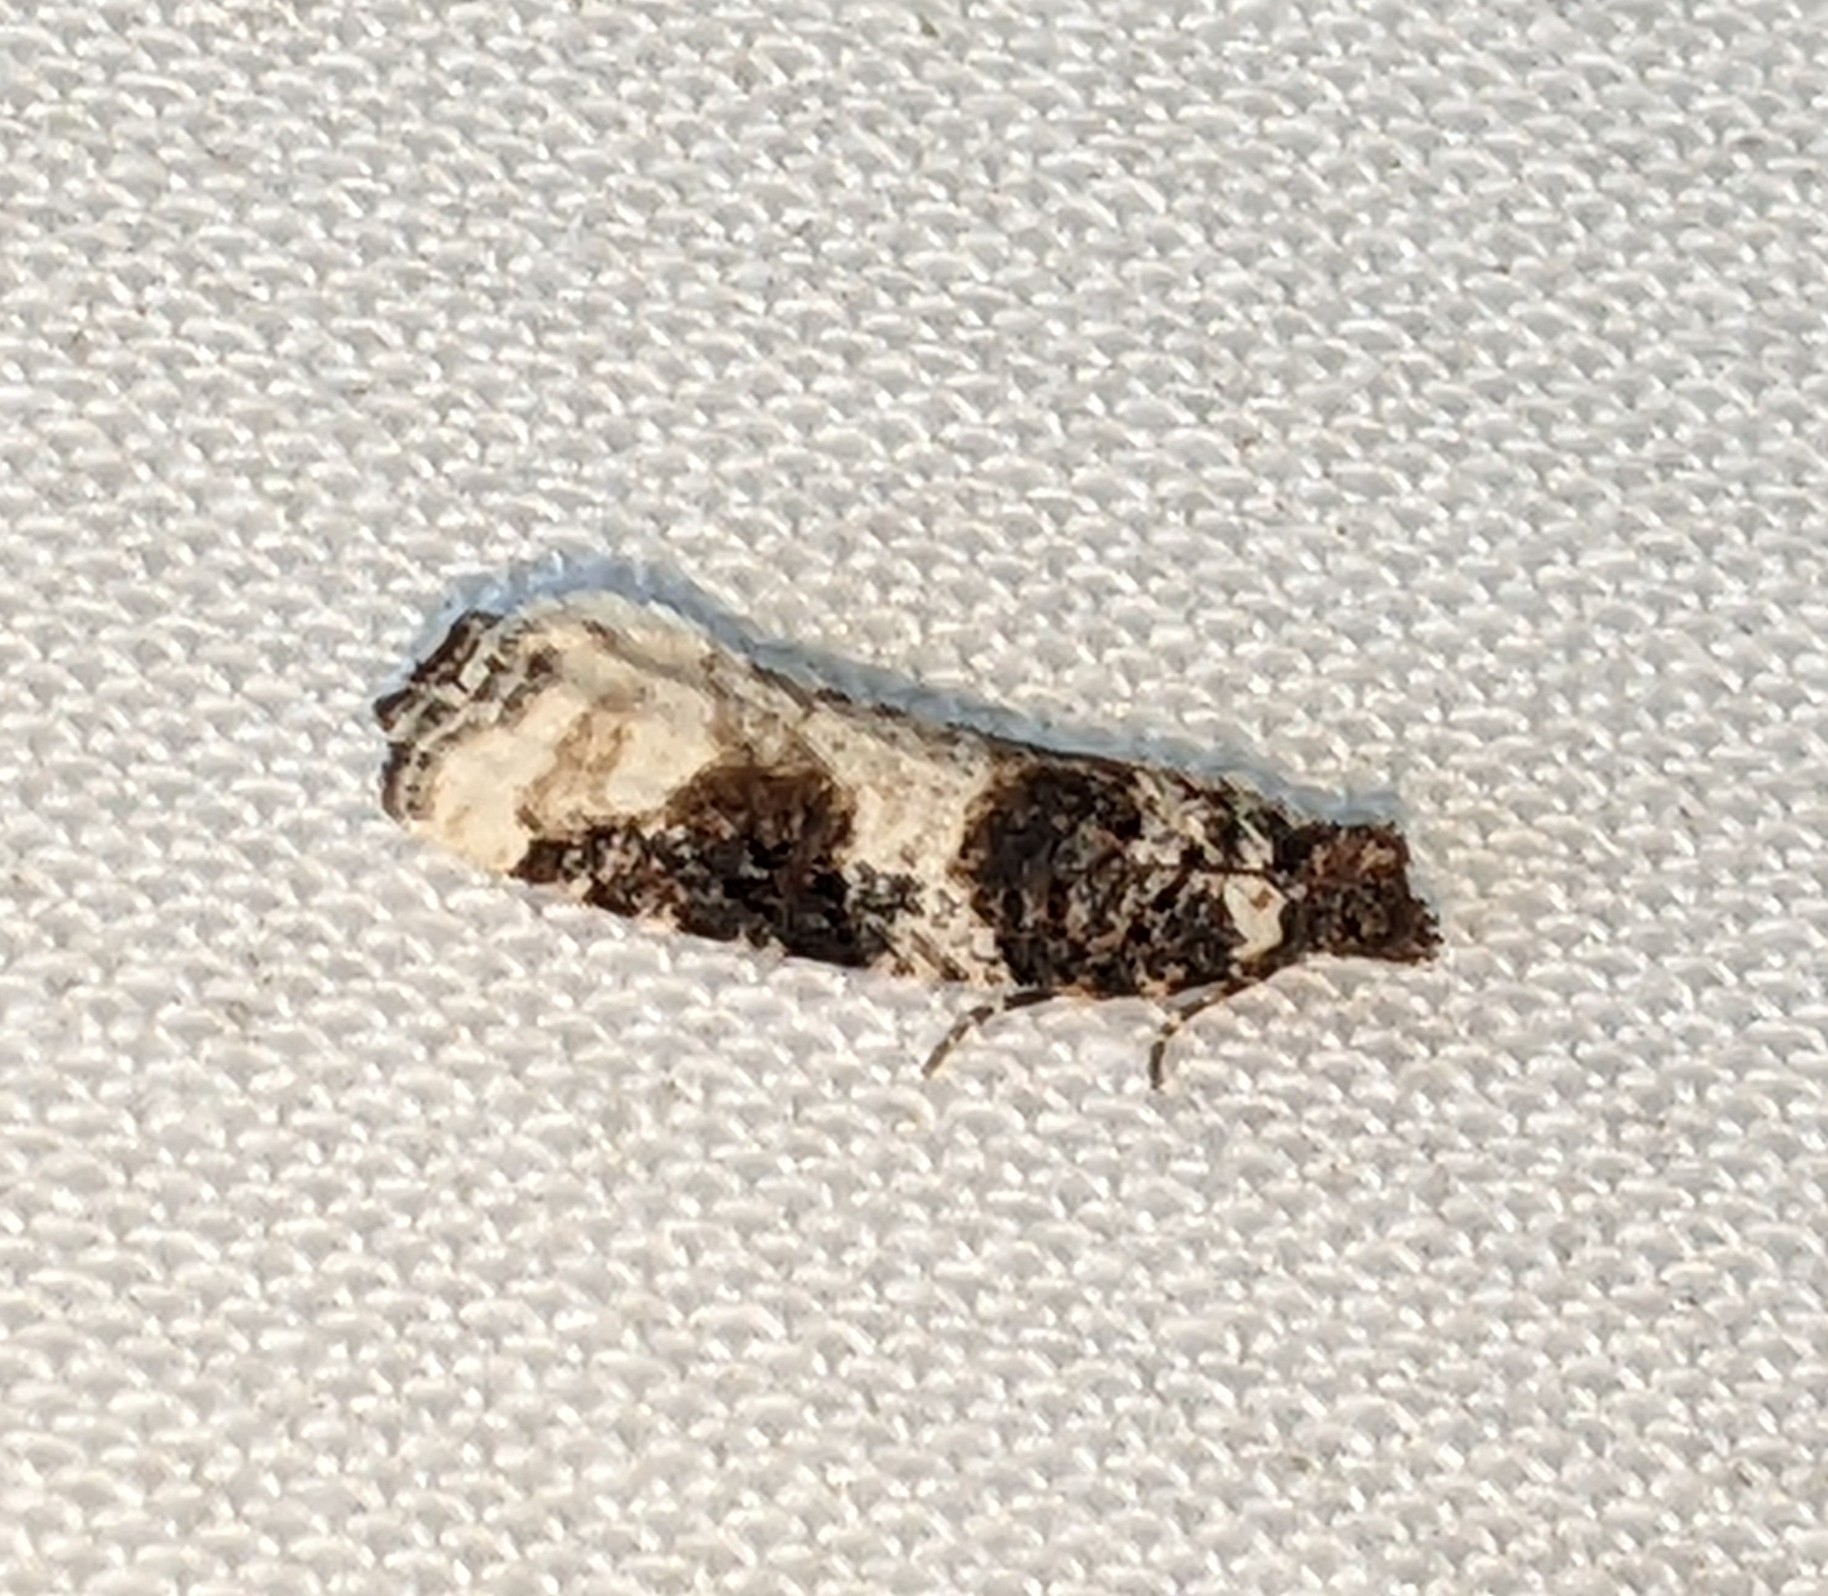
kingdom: Animalia
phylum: Arthropoda
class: Insecta
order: Lepidoptera
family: Tortricidae
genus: Epinotia
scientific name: Epinotia lomonana
